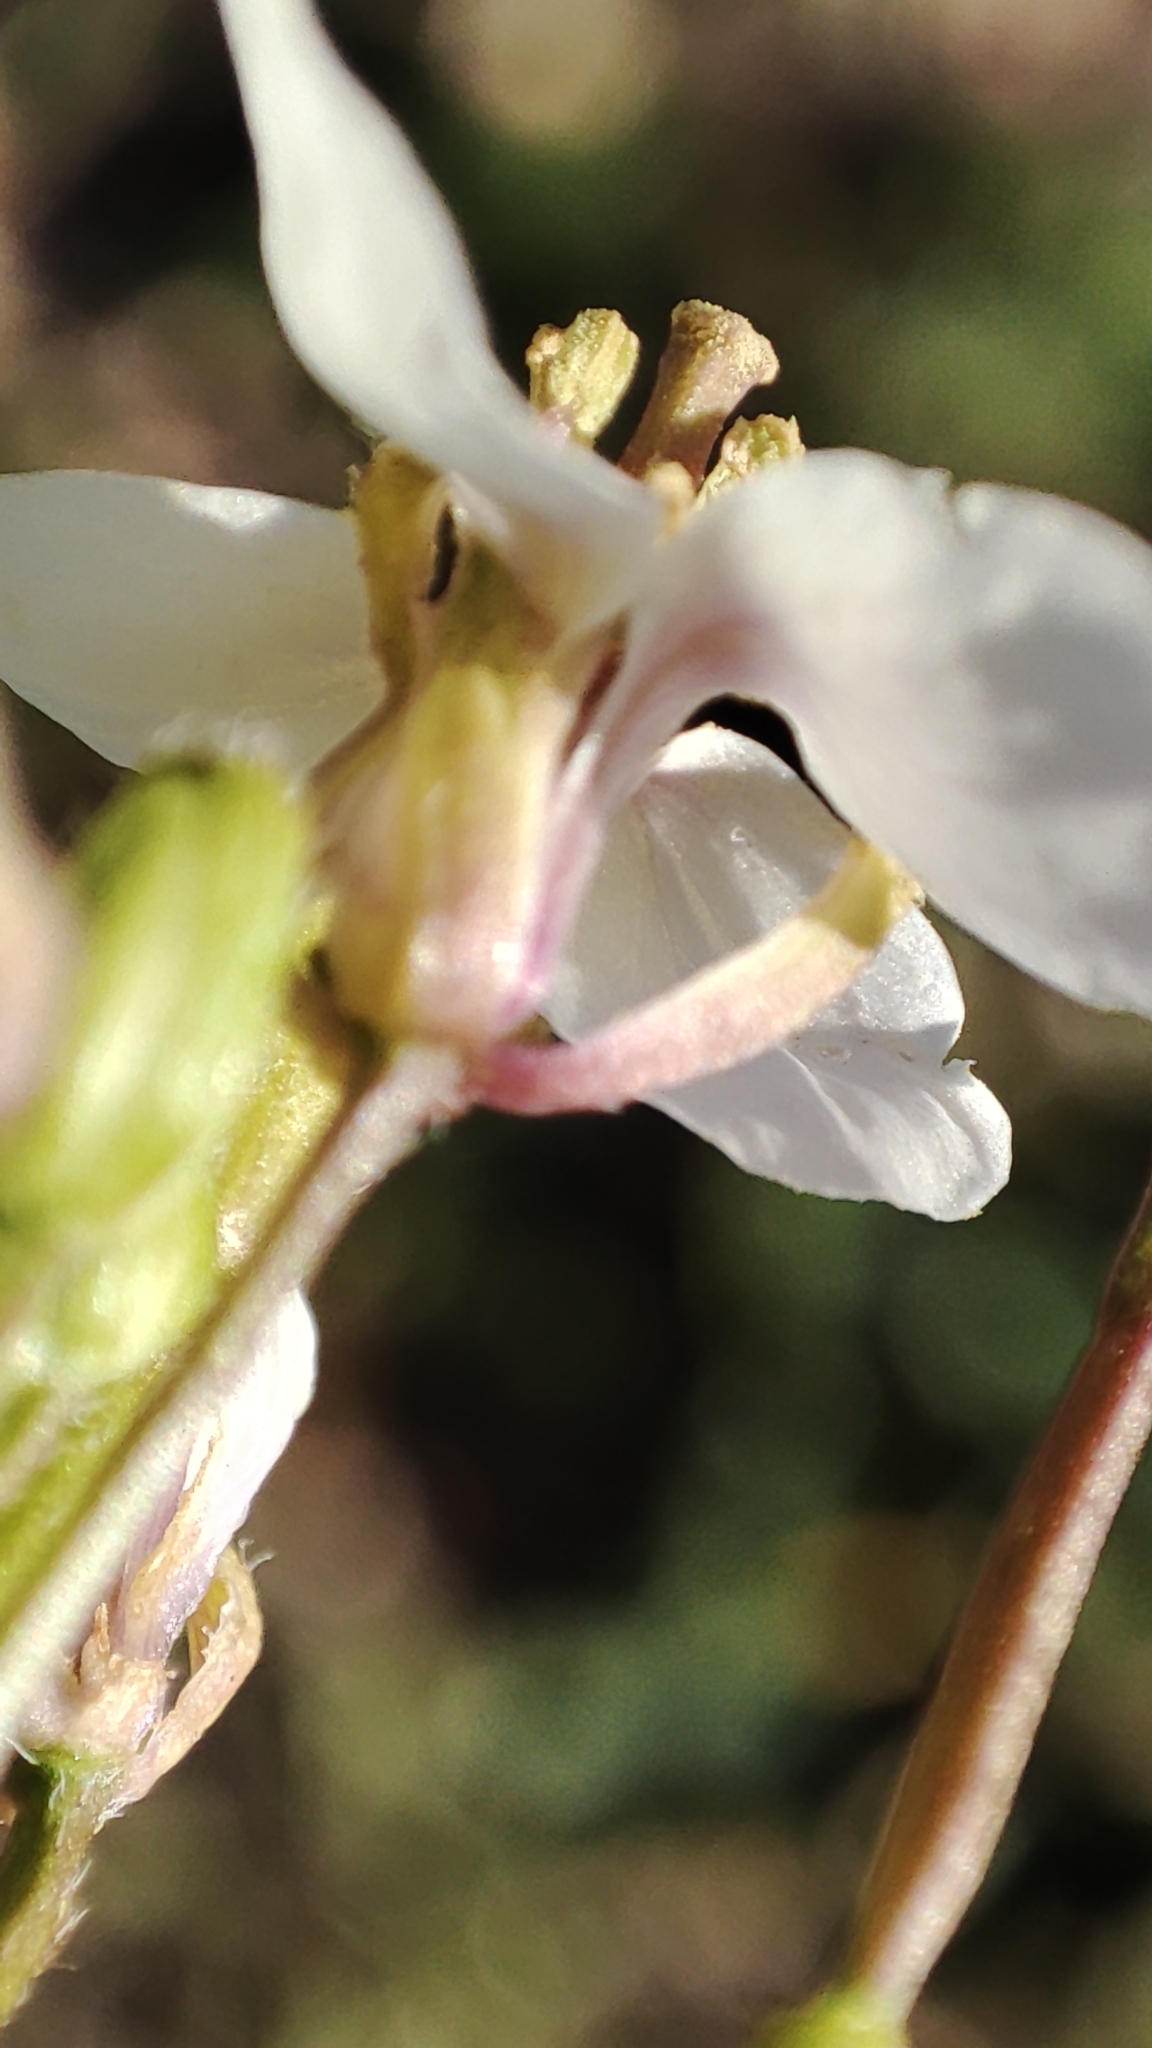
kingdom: Plantae
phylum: Tracheophyta
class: Magnoliopsida
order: Brassicales
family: Brassicaceae
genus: Diplotaxis
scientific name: Diplotaxis erucoides
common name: White rocket
